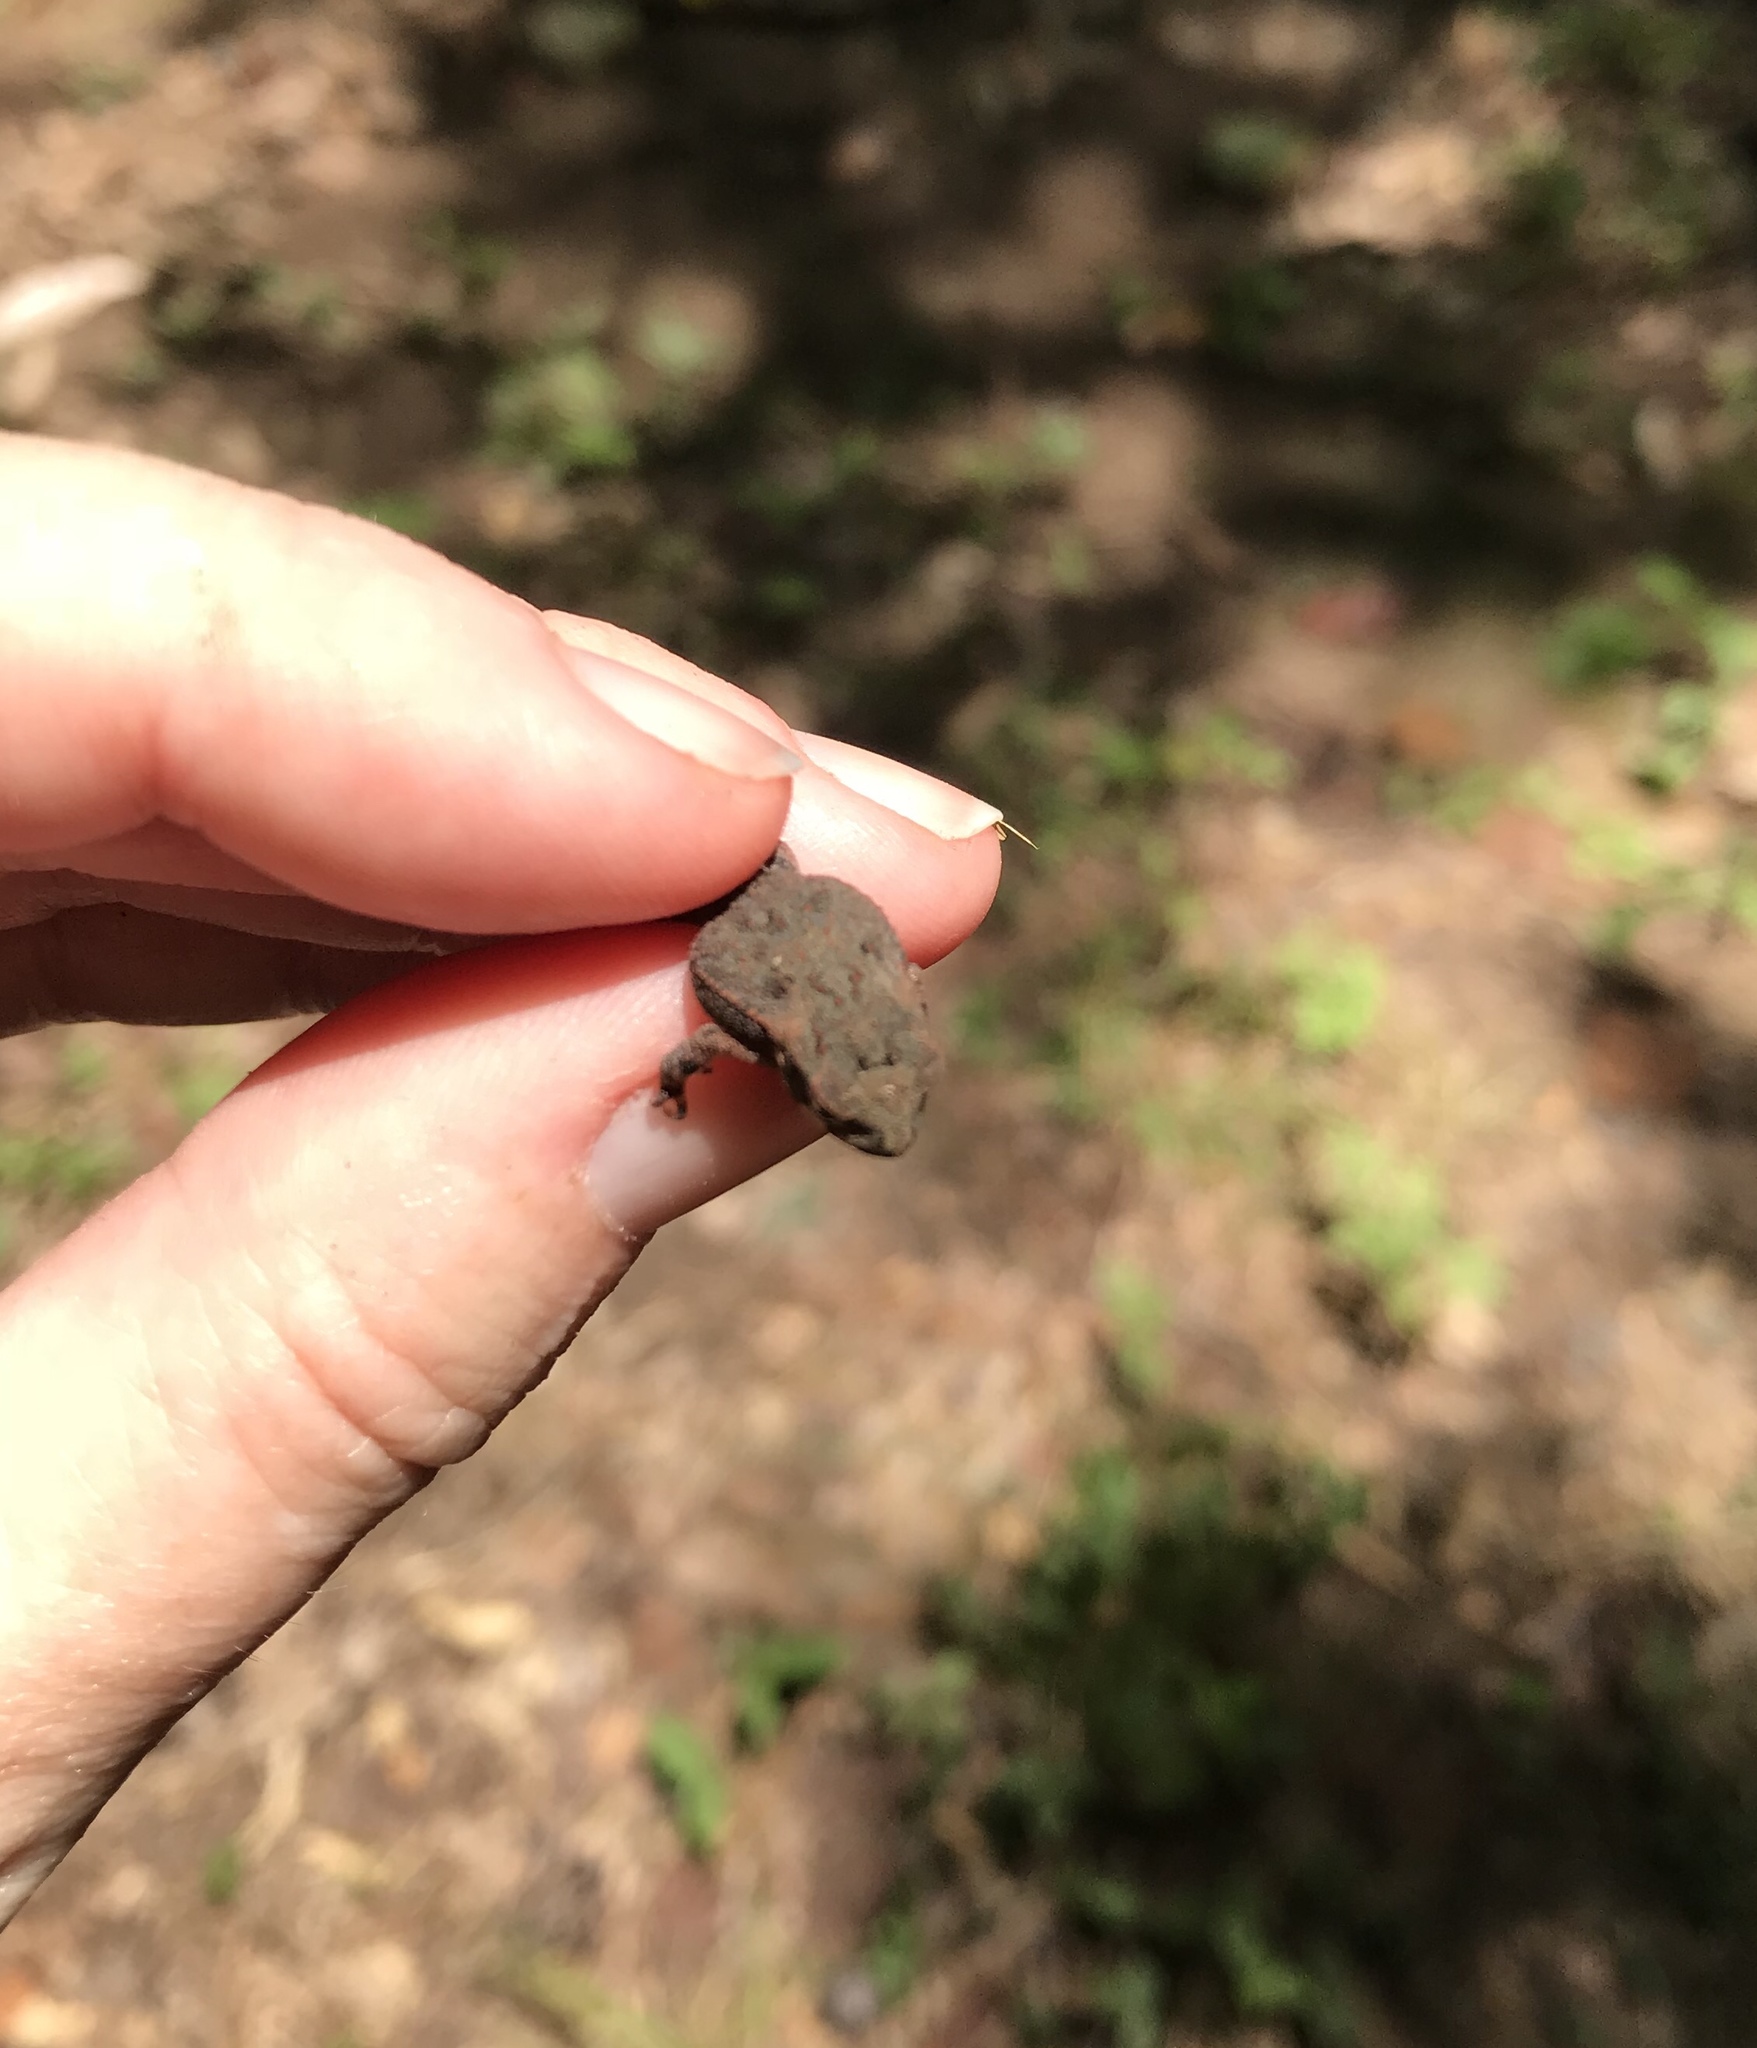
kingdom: Animalia
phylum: Chordata
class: Amphibia
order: Anura
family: Bufonidae
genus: Incilius
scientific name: Incilius nebulifer
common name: Gulf coast toad
